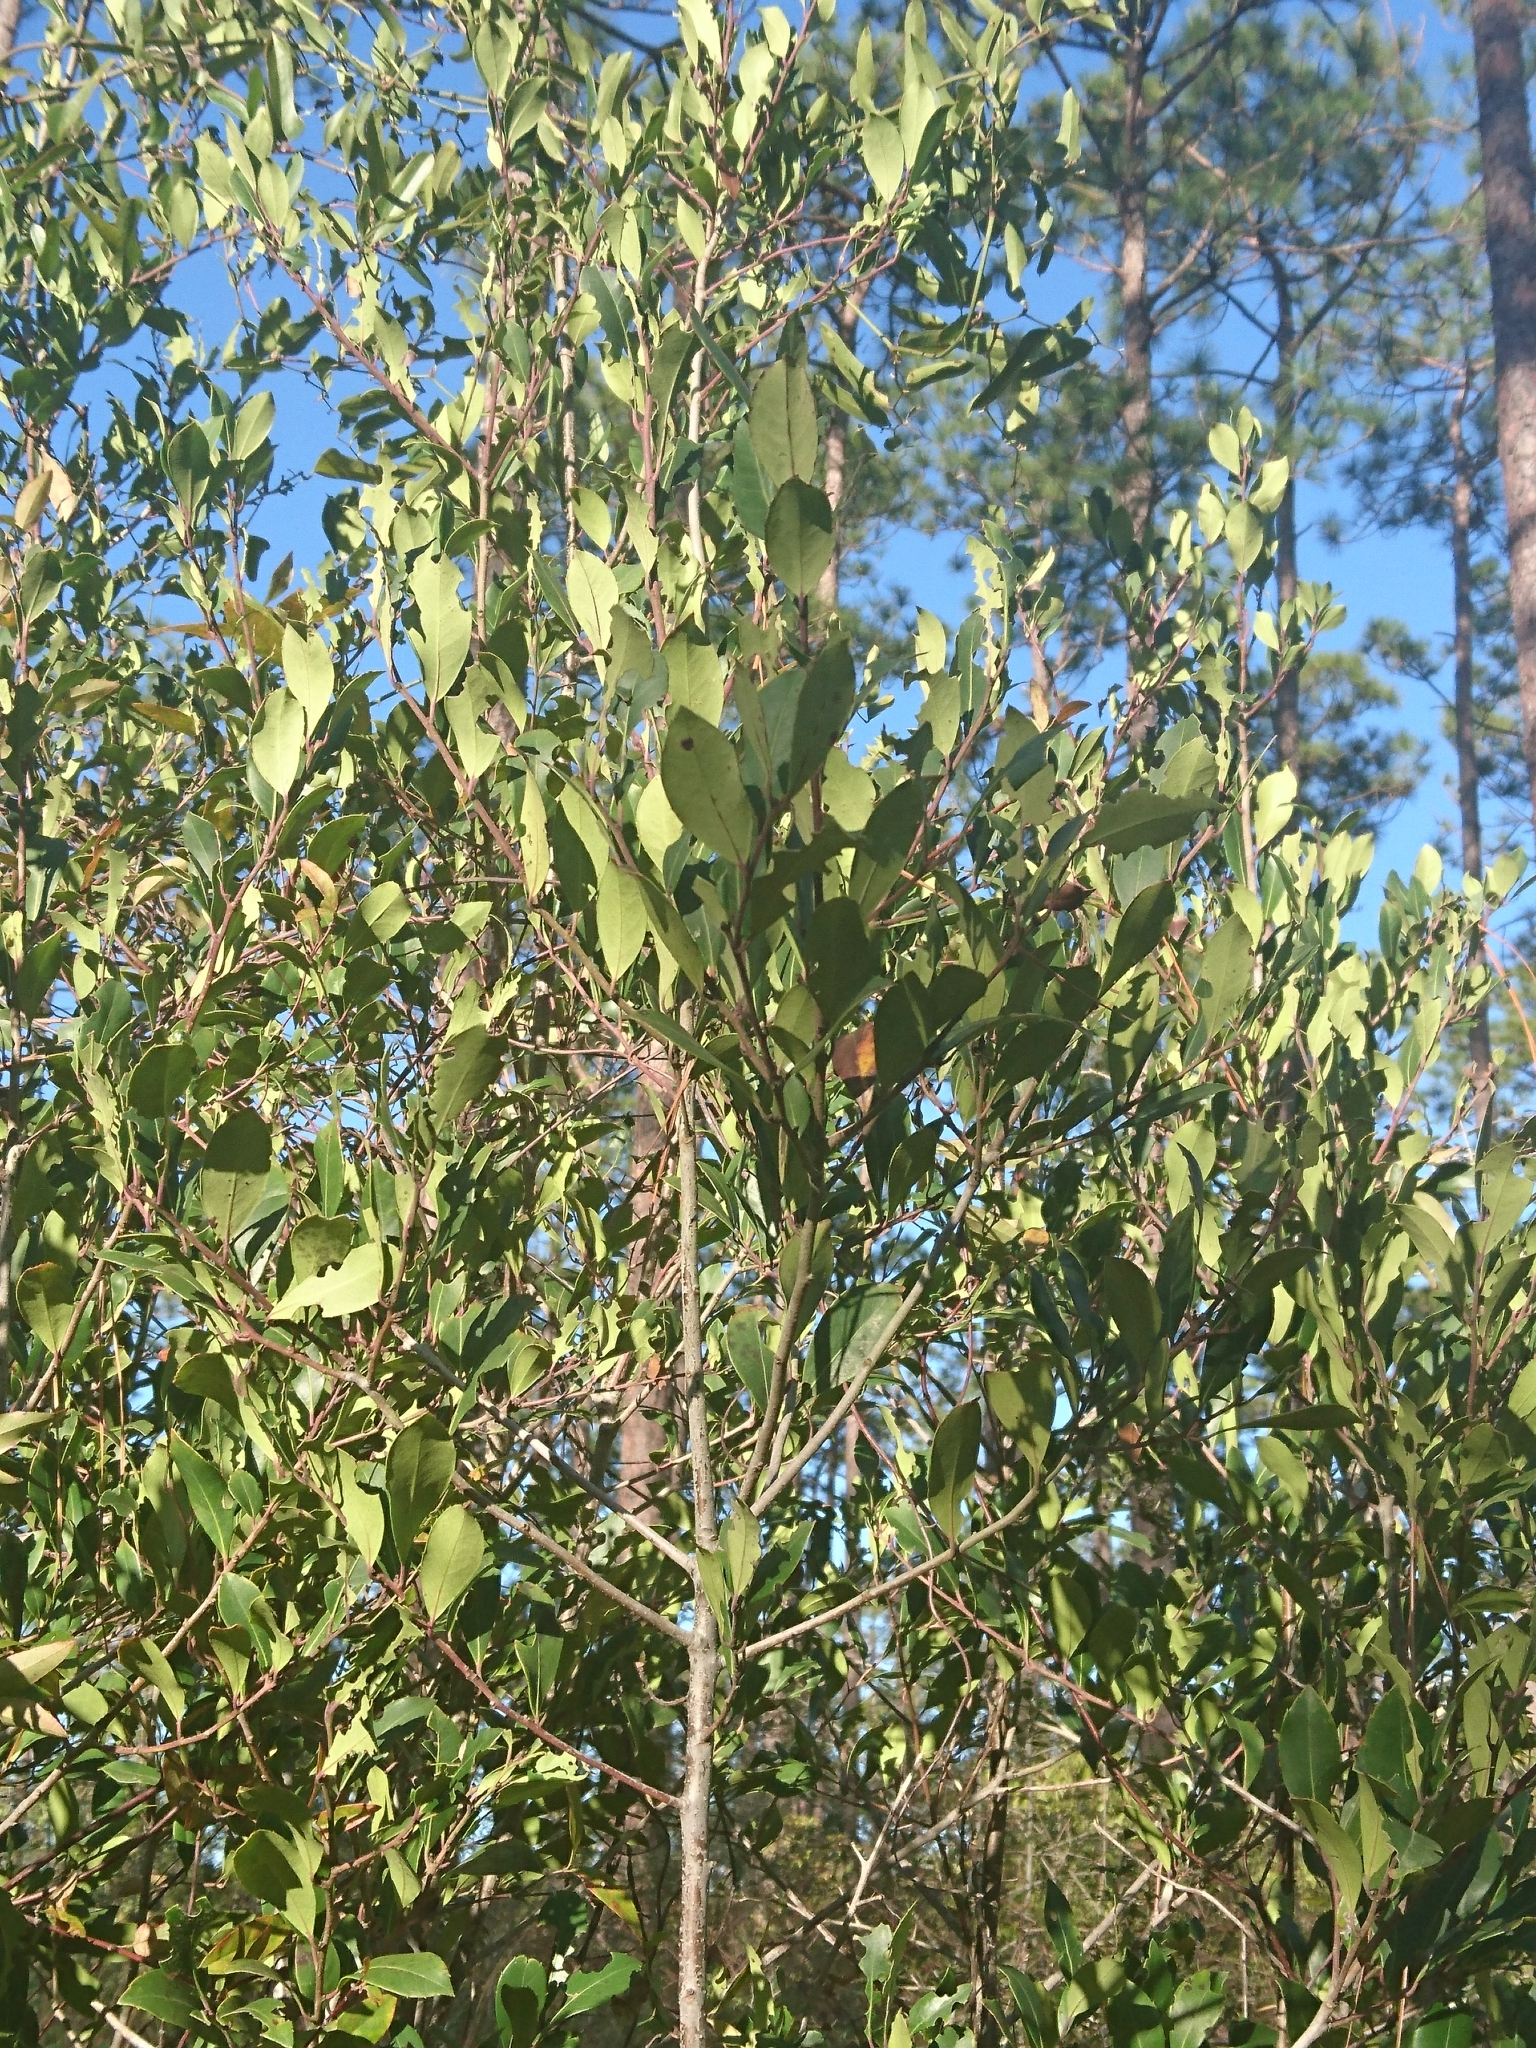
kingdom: Plantae
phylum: Tracheophyta
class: Magnoliopsida
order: Aquifoliales
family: Aquifoliaceae
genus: Ilex
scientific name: Ilex coriacea
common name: Sweet gallberry
